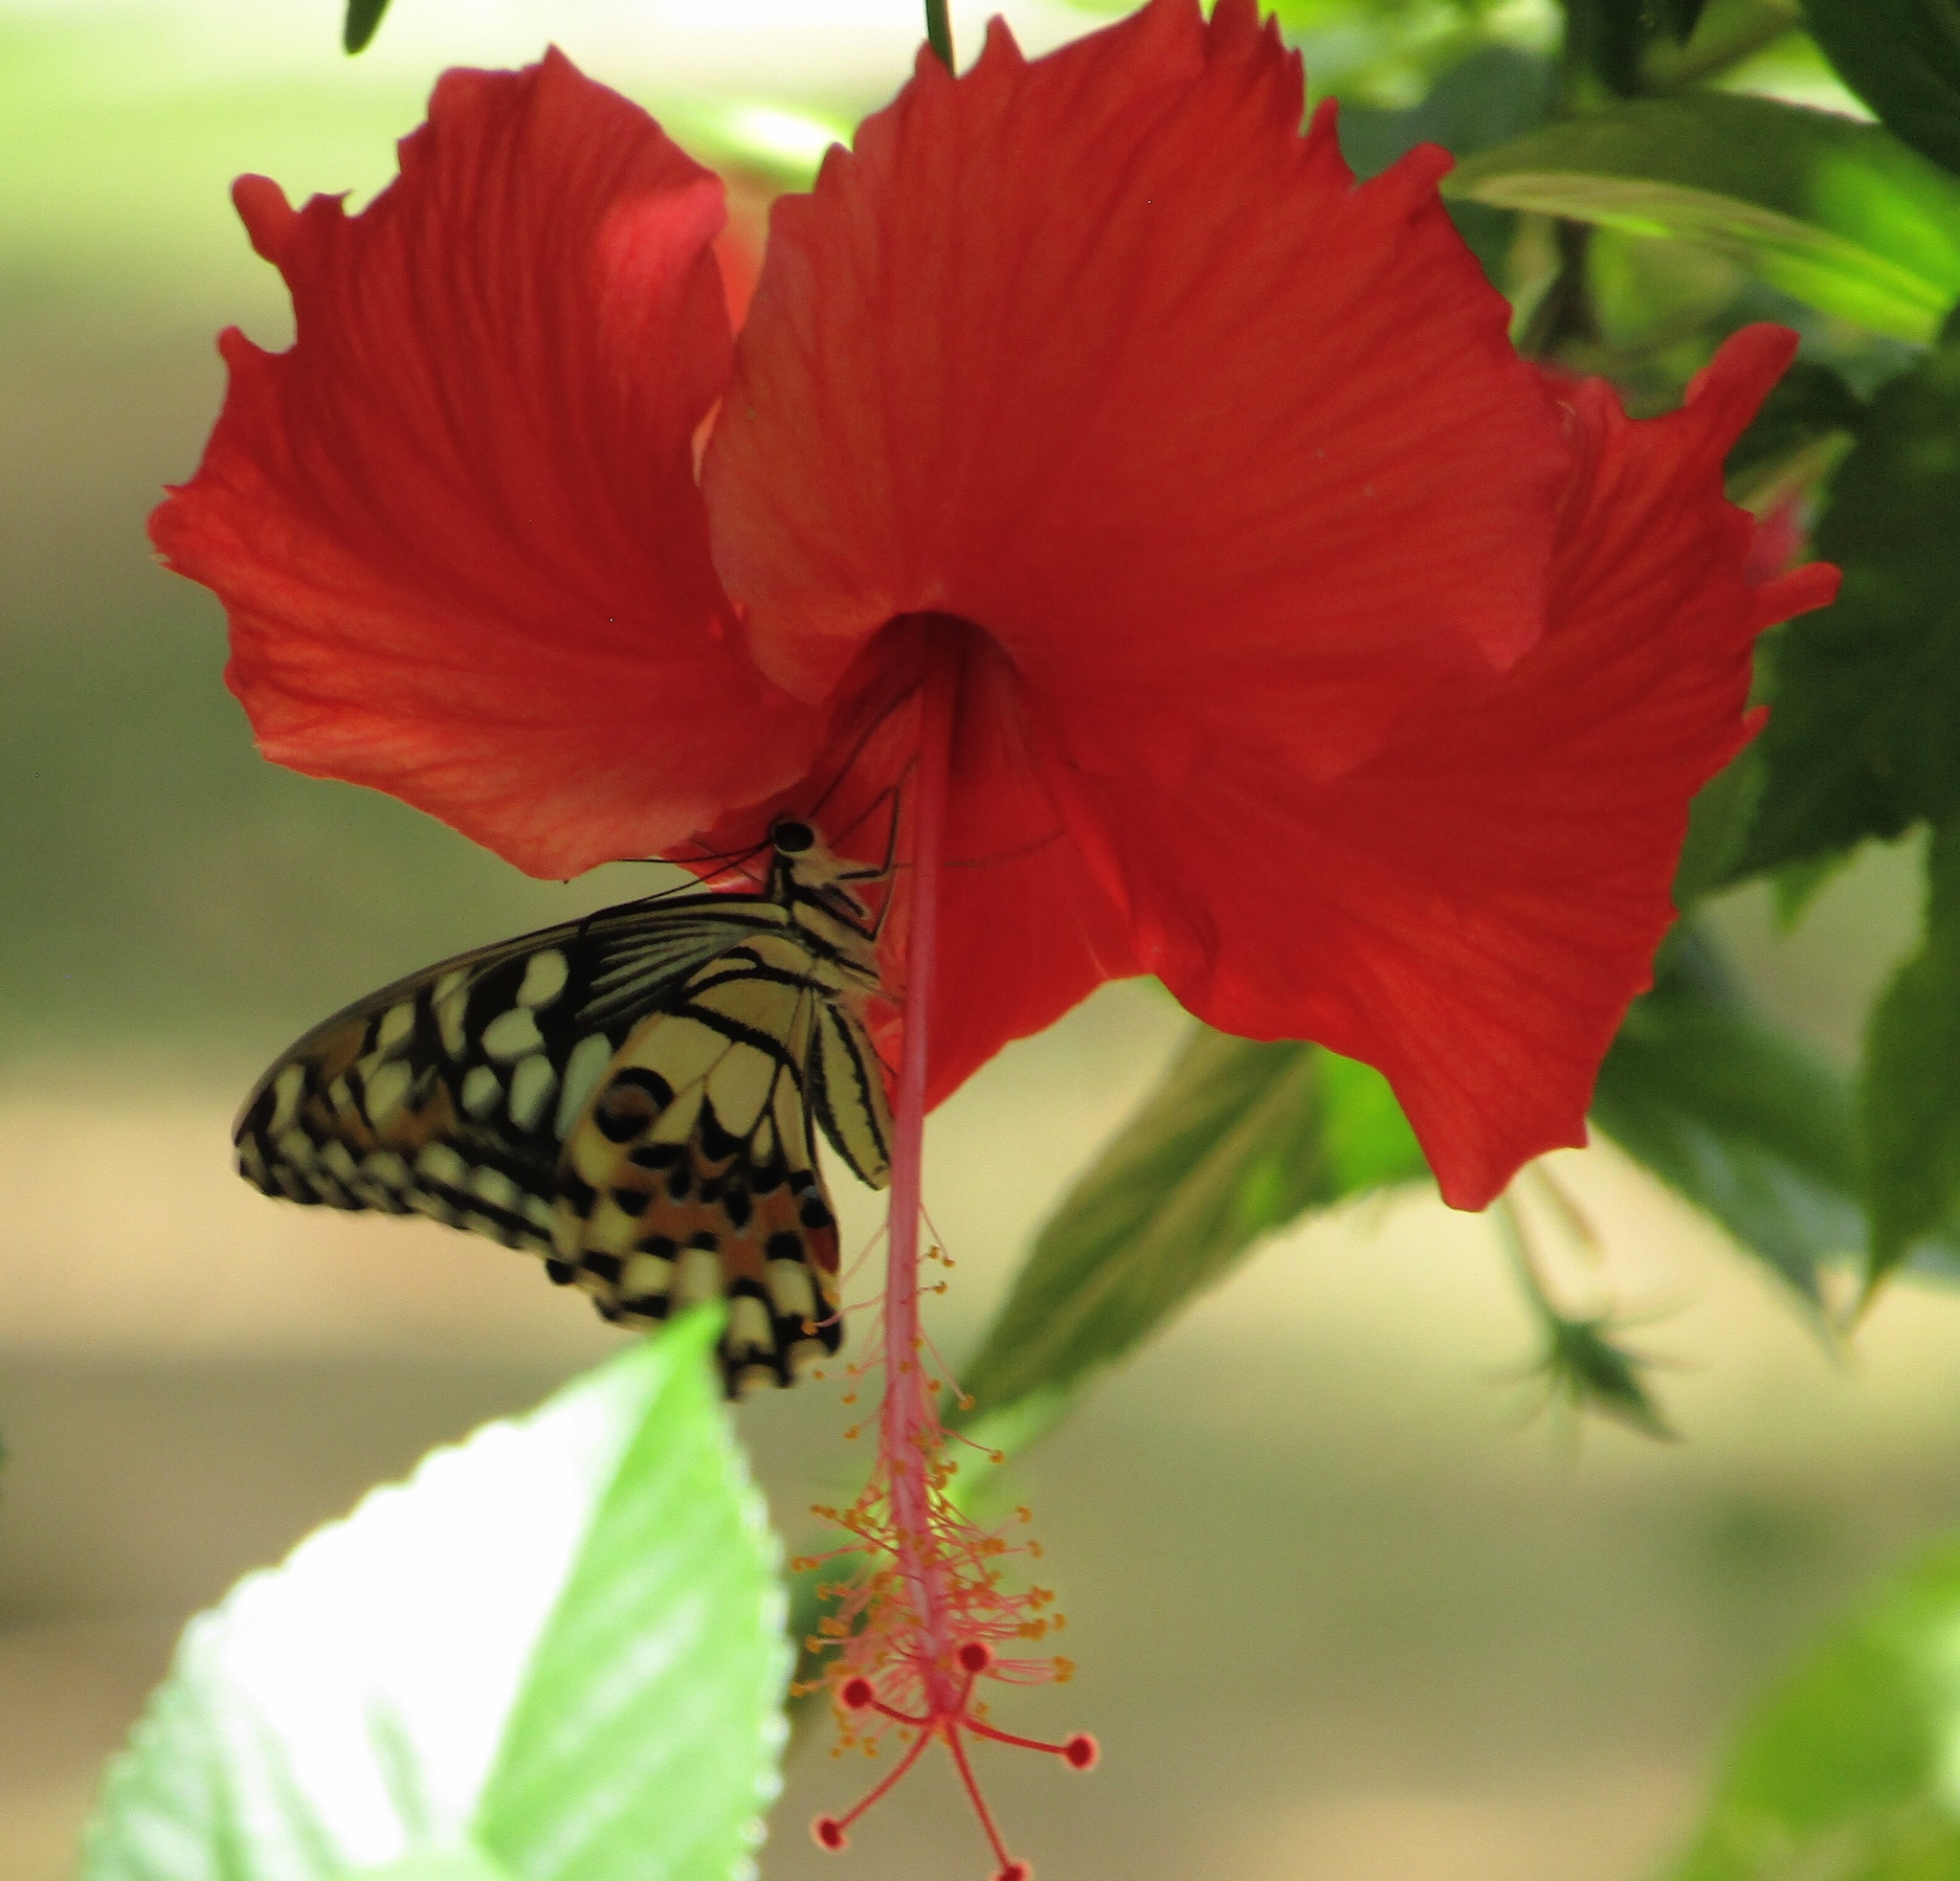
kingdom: Animalia
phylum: Arthropoda
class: Insecta
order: Lepidoptera
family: Papilionidae
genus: Papilio
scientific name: Papilio demoleus
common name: Lime butterfly
